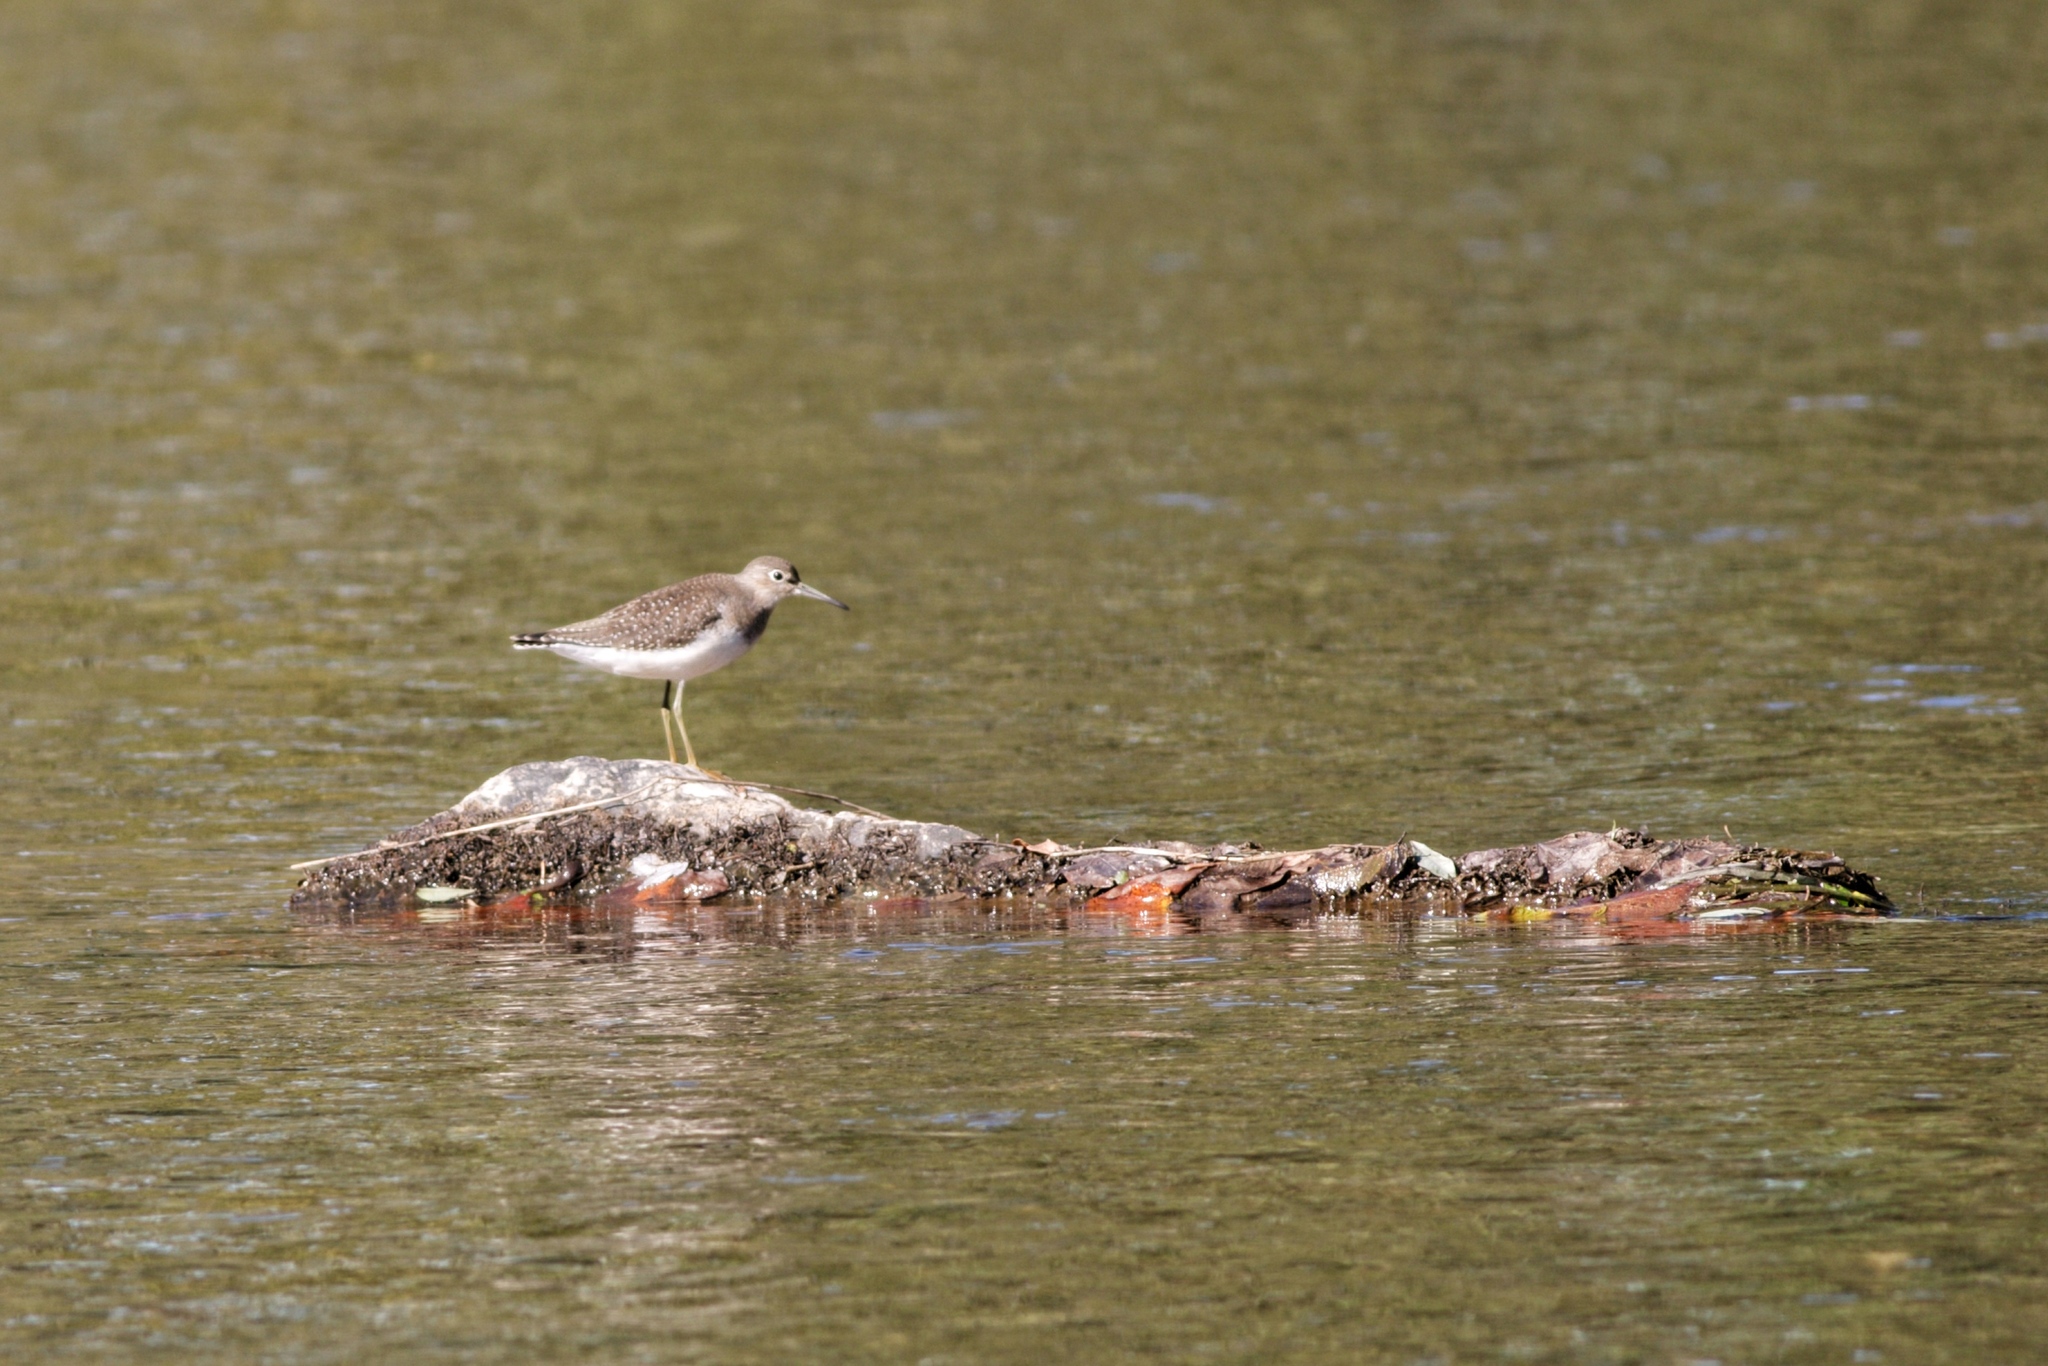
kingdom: Animalia
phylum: Chordata
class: Aves
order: Charadriiformes
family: Scolopacidae
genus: Tringa
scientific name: Tringa solitaria
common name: Solitary sandpiper
